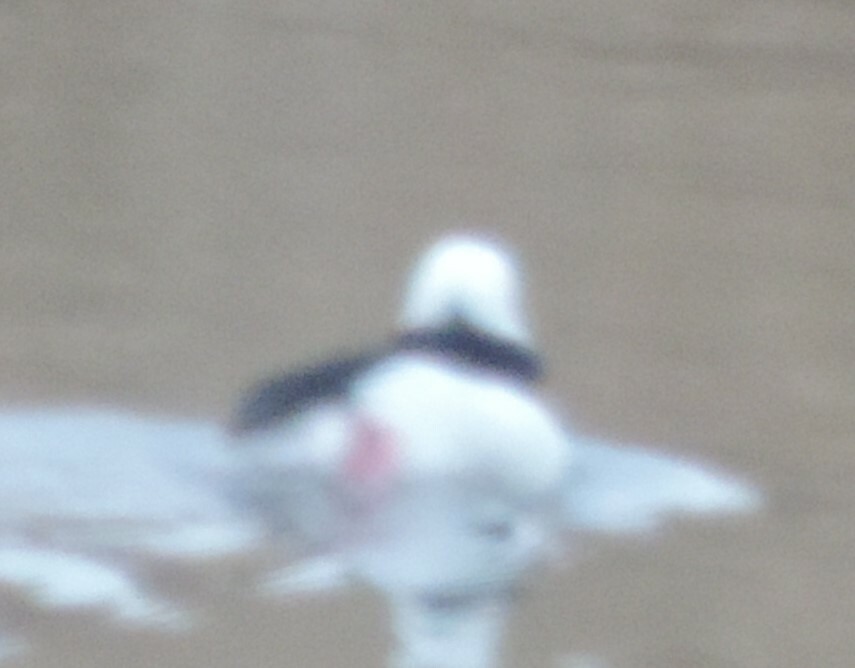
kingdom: Animalia
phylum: Chordata
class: Aves
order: Anseriformes
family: Anatidae
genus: Bucephala
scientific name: Bucephala albeola
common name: Bufflehead
